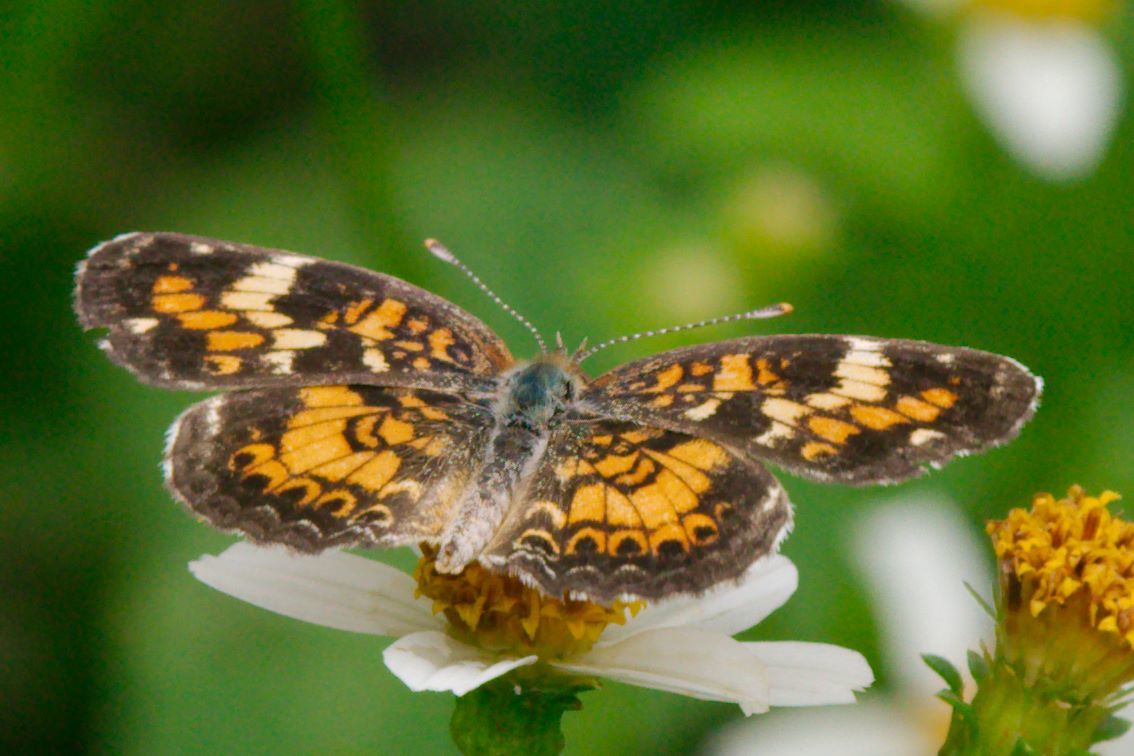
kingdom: Animalia
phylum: Arthropoda
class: Insecta
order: Lepidoptera
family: Nymphalidae
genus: Phyciodes
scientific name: Phyciodes phaon
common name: Phaon crescent
